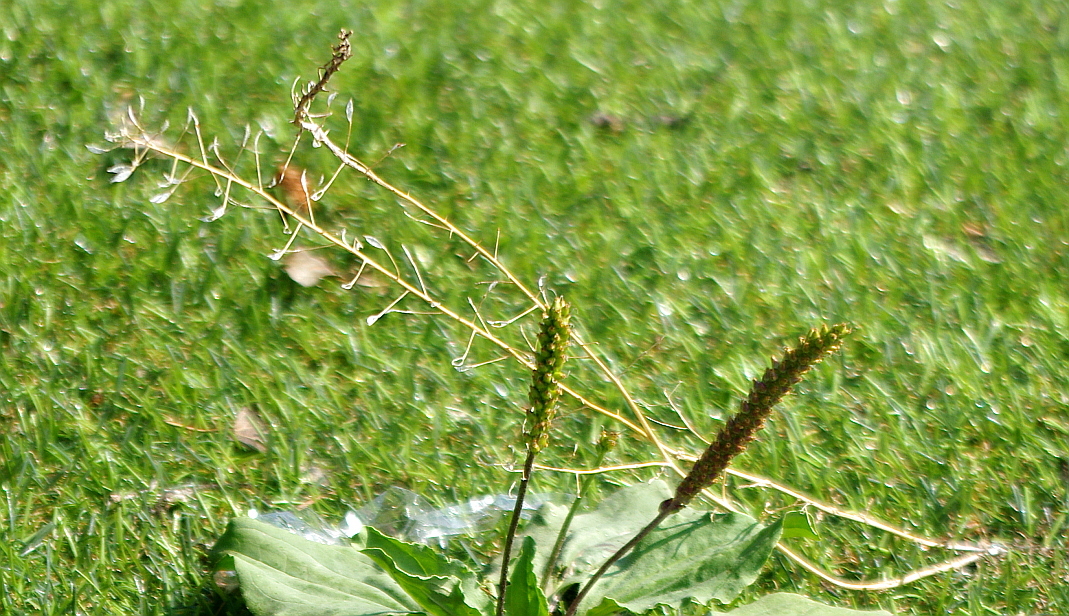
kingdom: Plantae
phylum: Tracheophyta
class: Magnoliopsida
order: Brassicales
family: Brassicaceae
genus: Capsella
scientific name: Capsella bursa-pastoris
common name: Shepherd's purse
